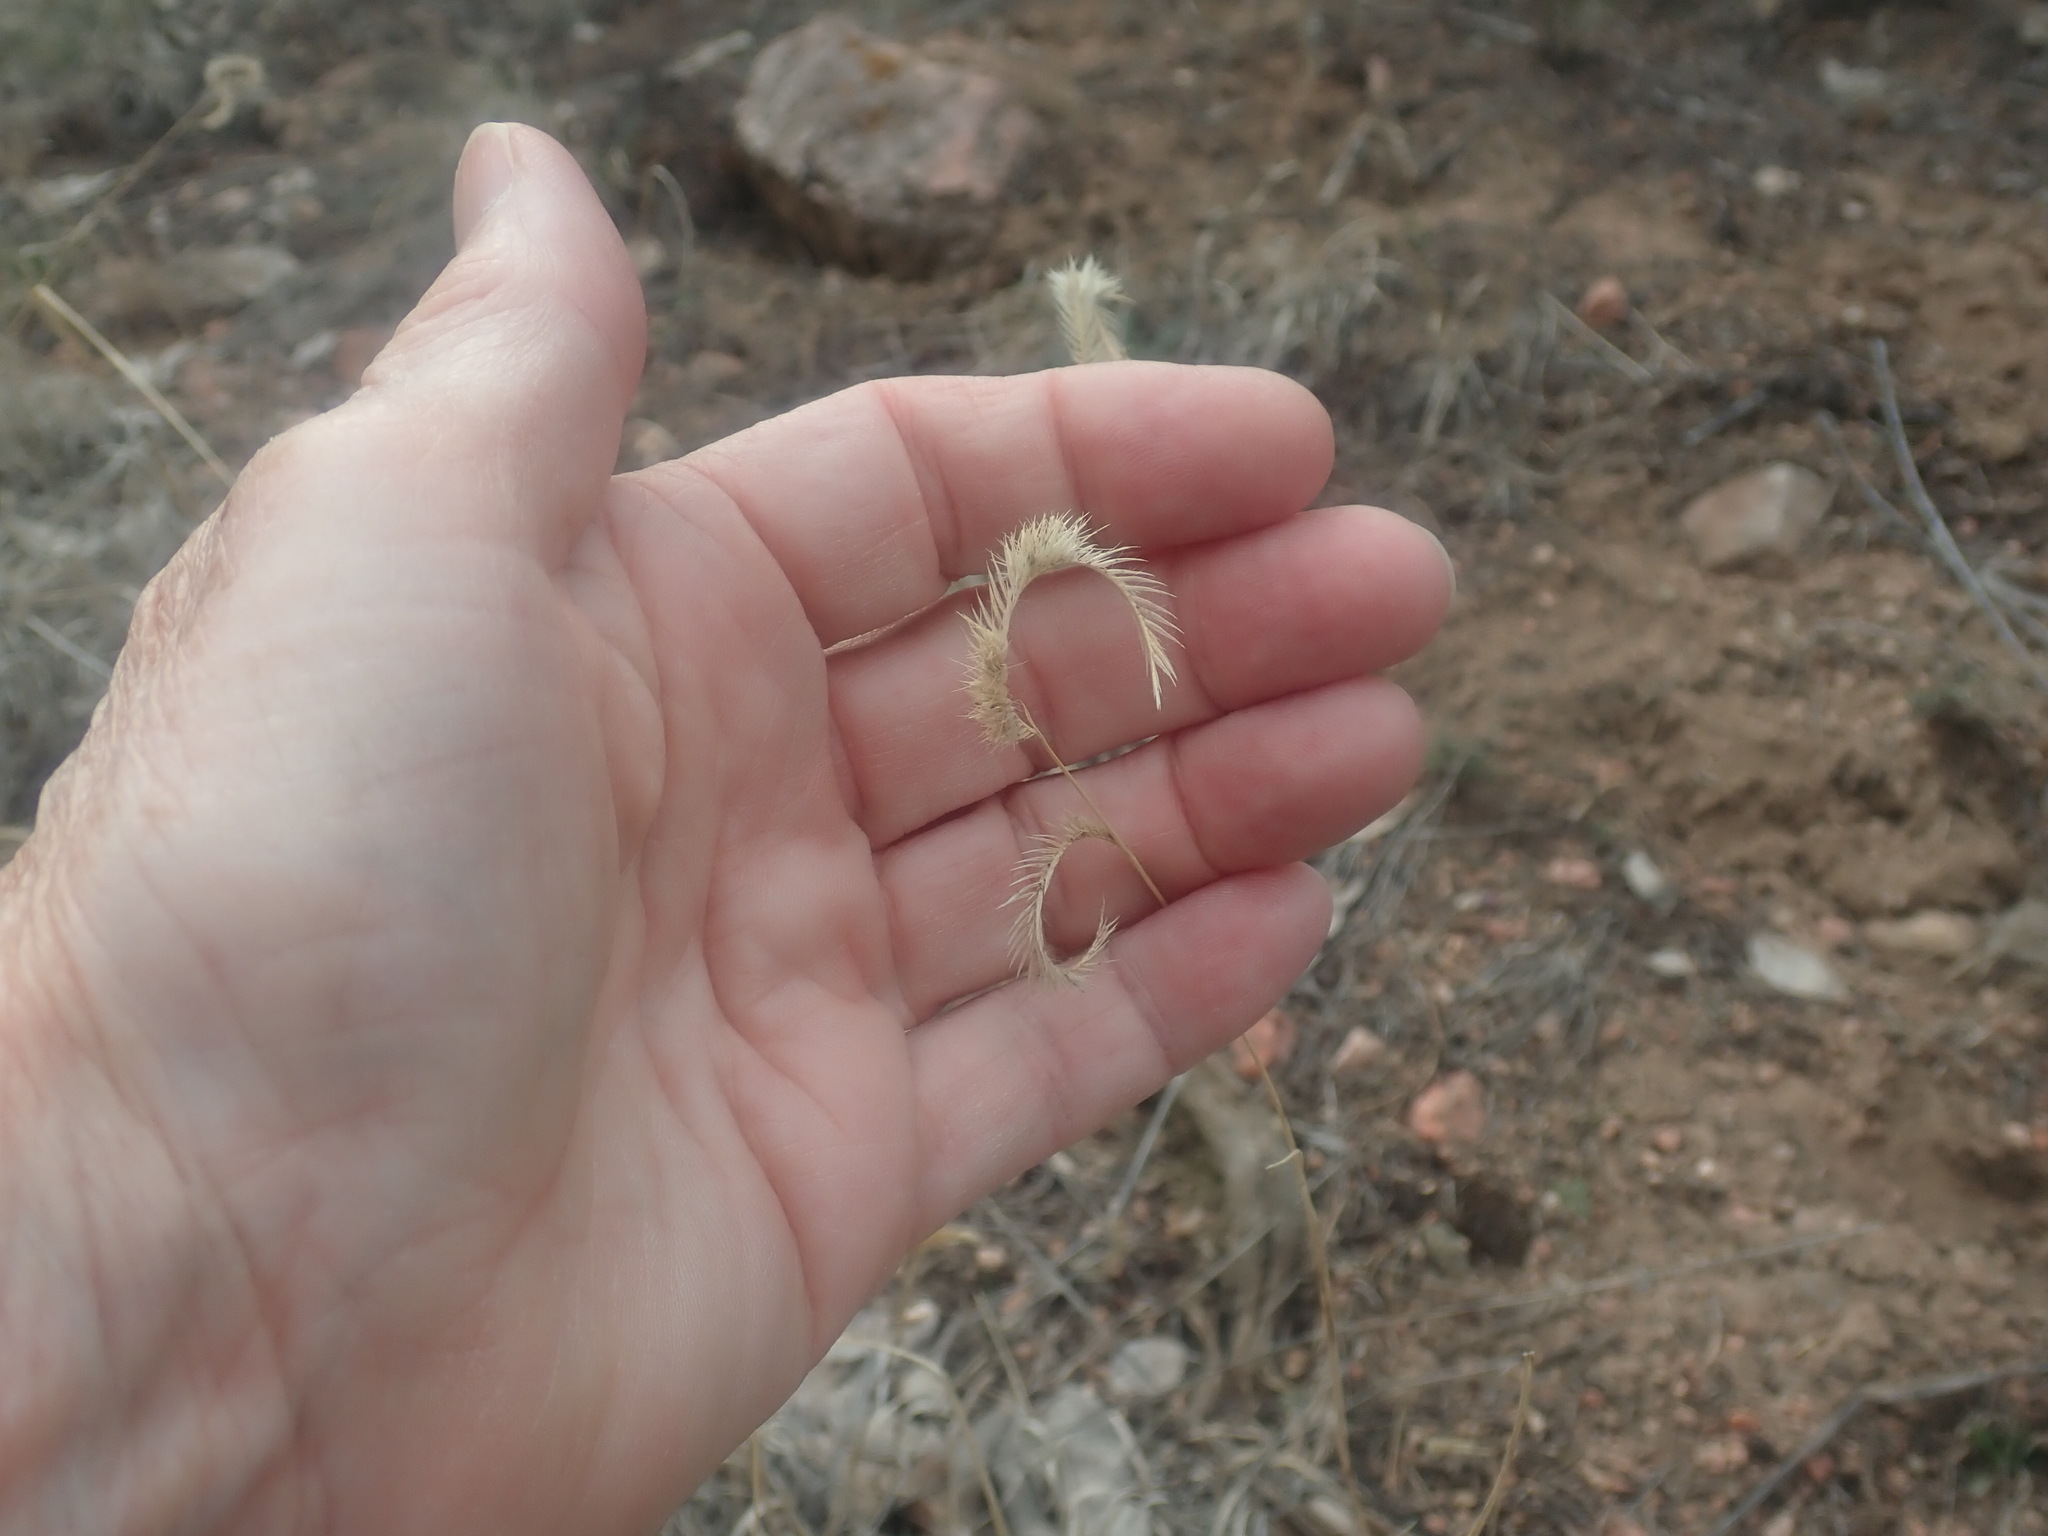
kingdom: Plantae
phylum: Tracheophyta
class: Liliopsida
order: Poales
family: Poaceae
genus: Bouteloua
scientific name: Bouteloua gracilis
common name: Blue grama
